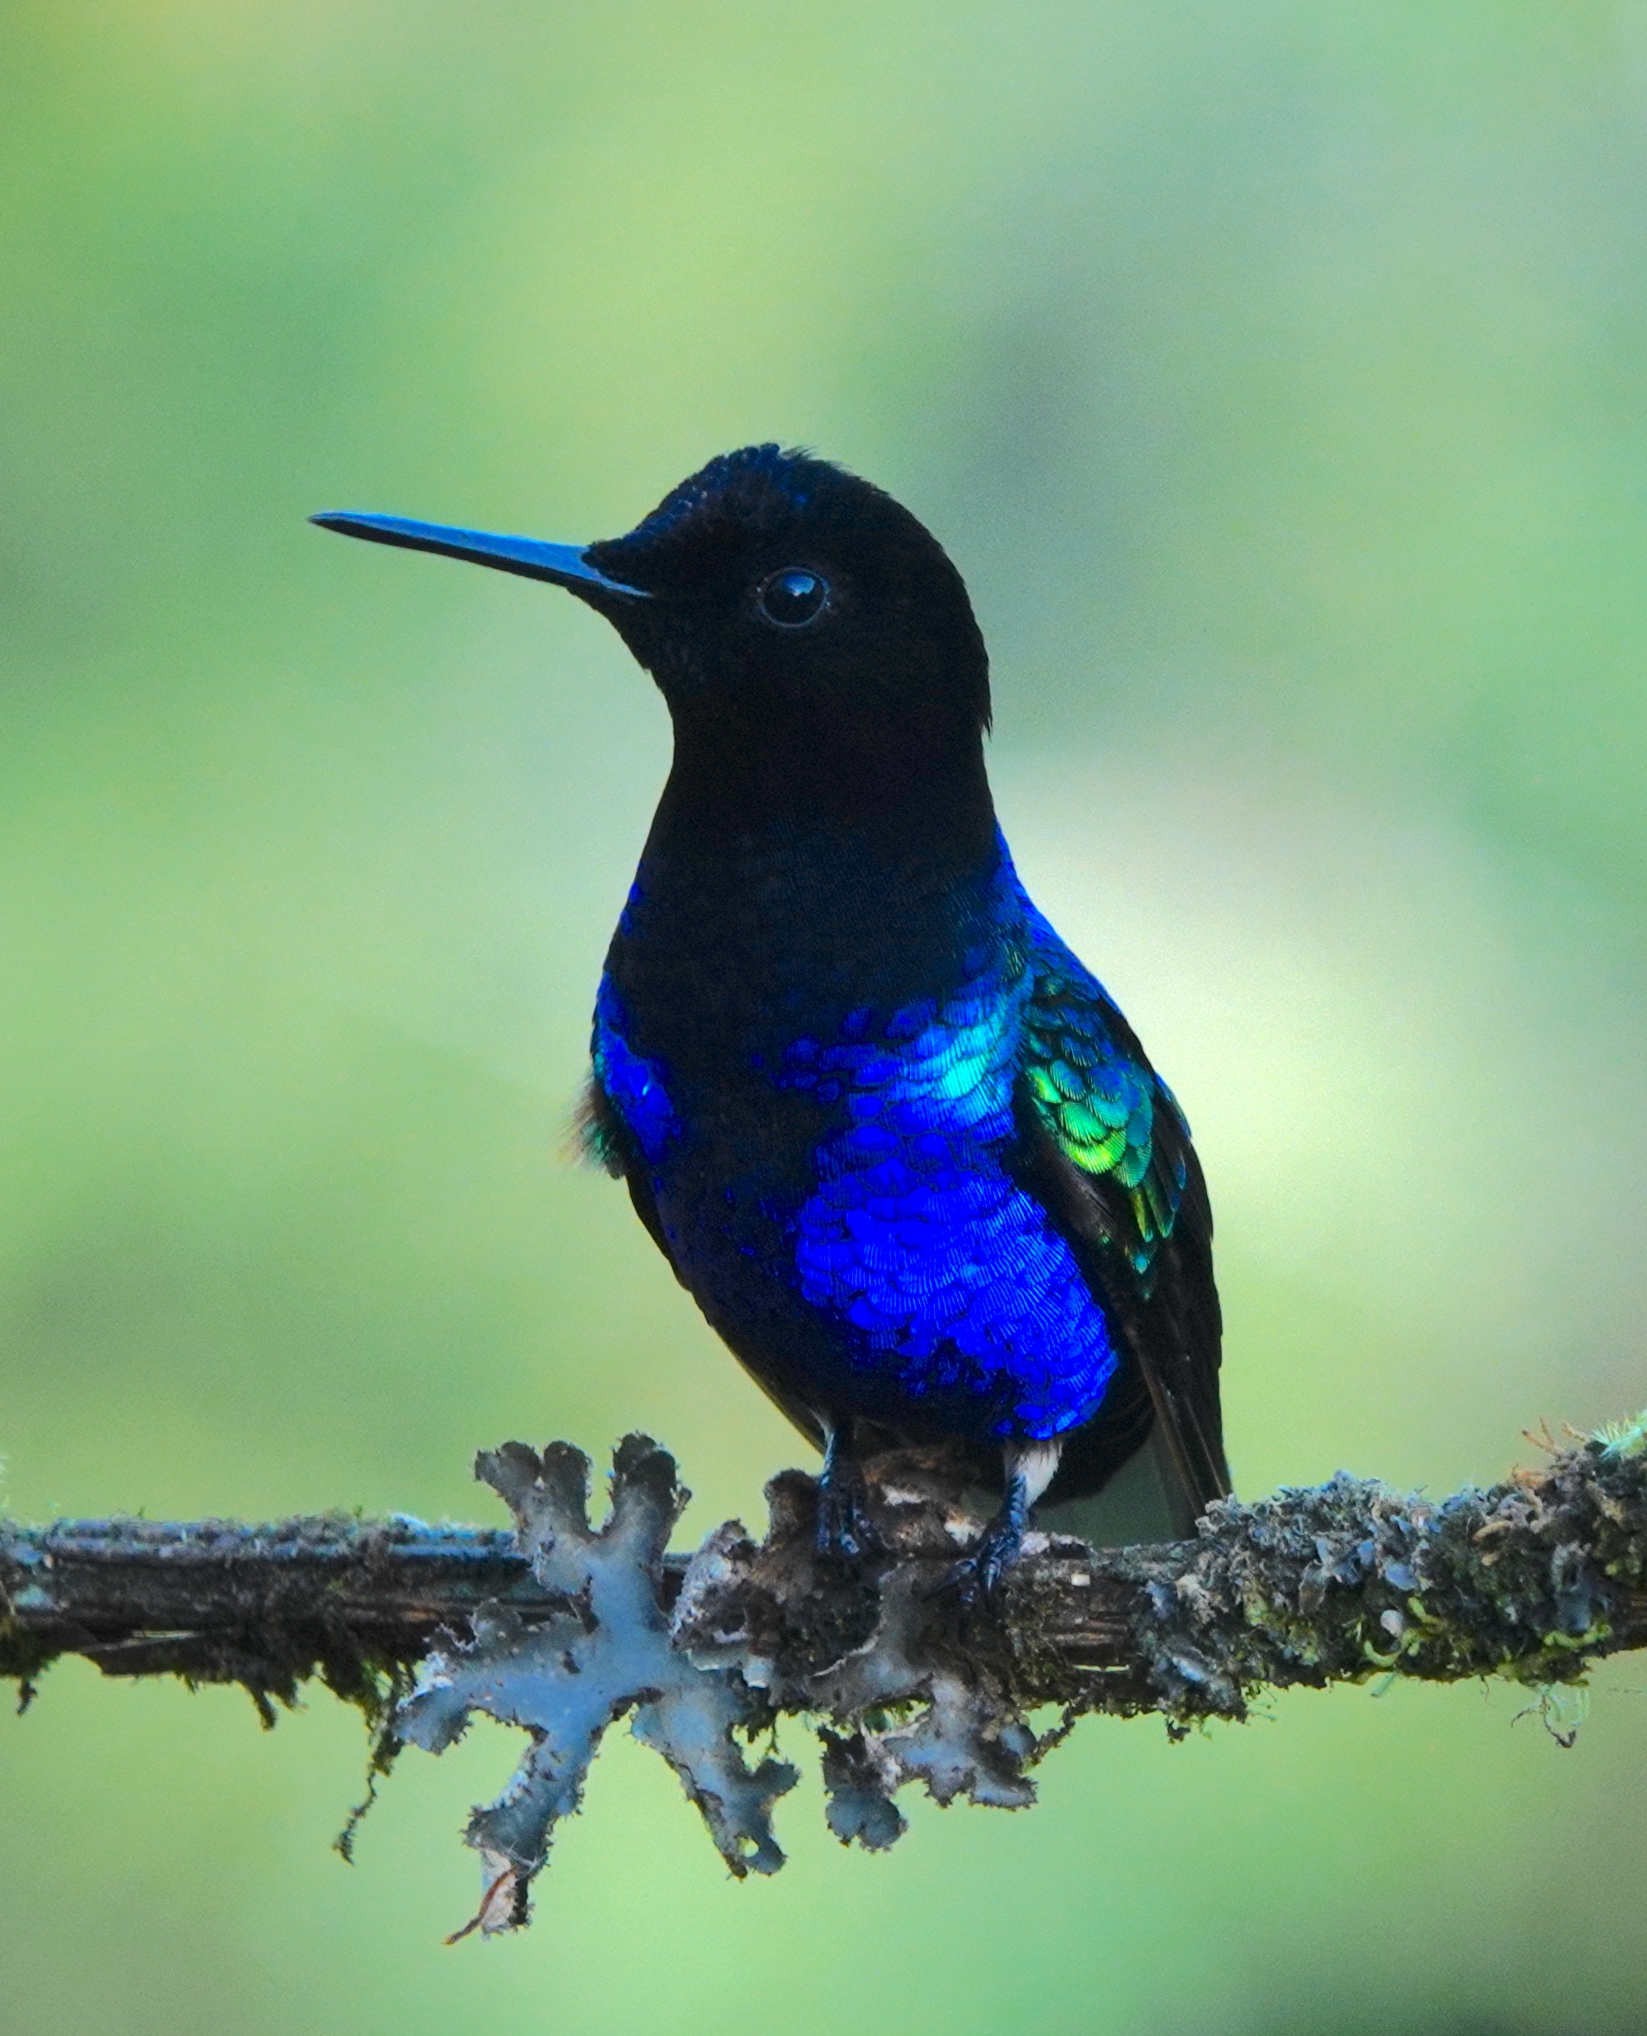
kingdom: Animalia
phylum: Chordata
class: Aves
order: Apodiformes
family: Trochilidae
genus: Boissonneaua
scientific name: Boissonneaua jardini
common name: Velvet-purple coronet
